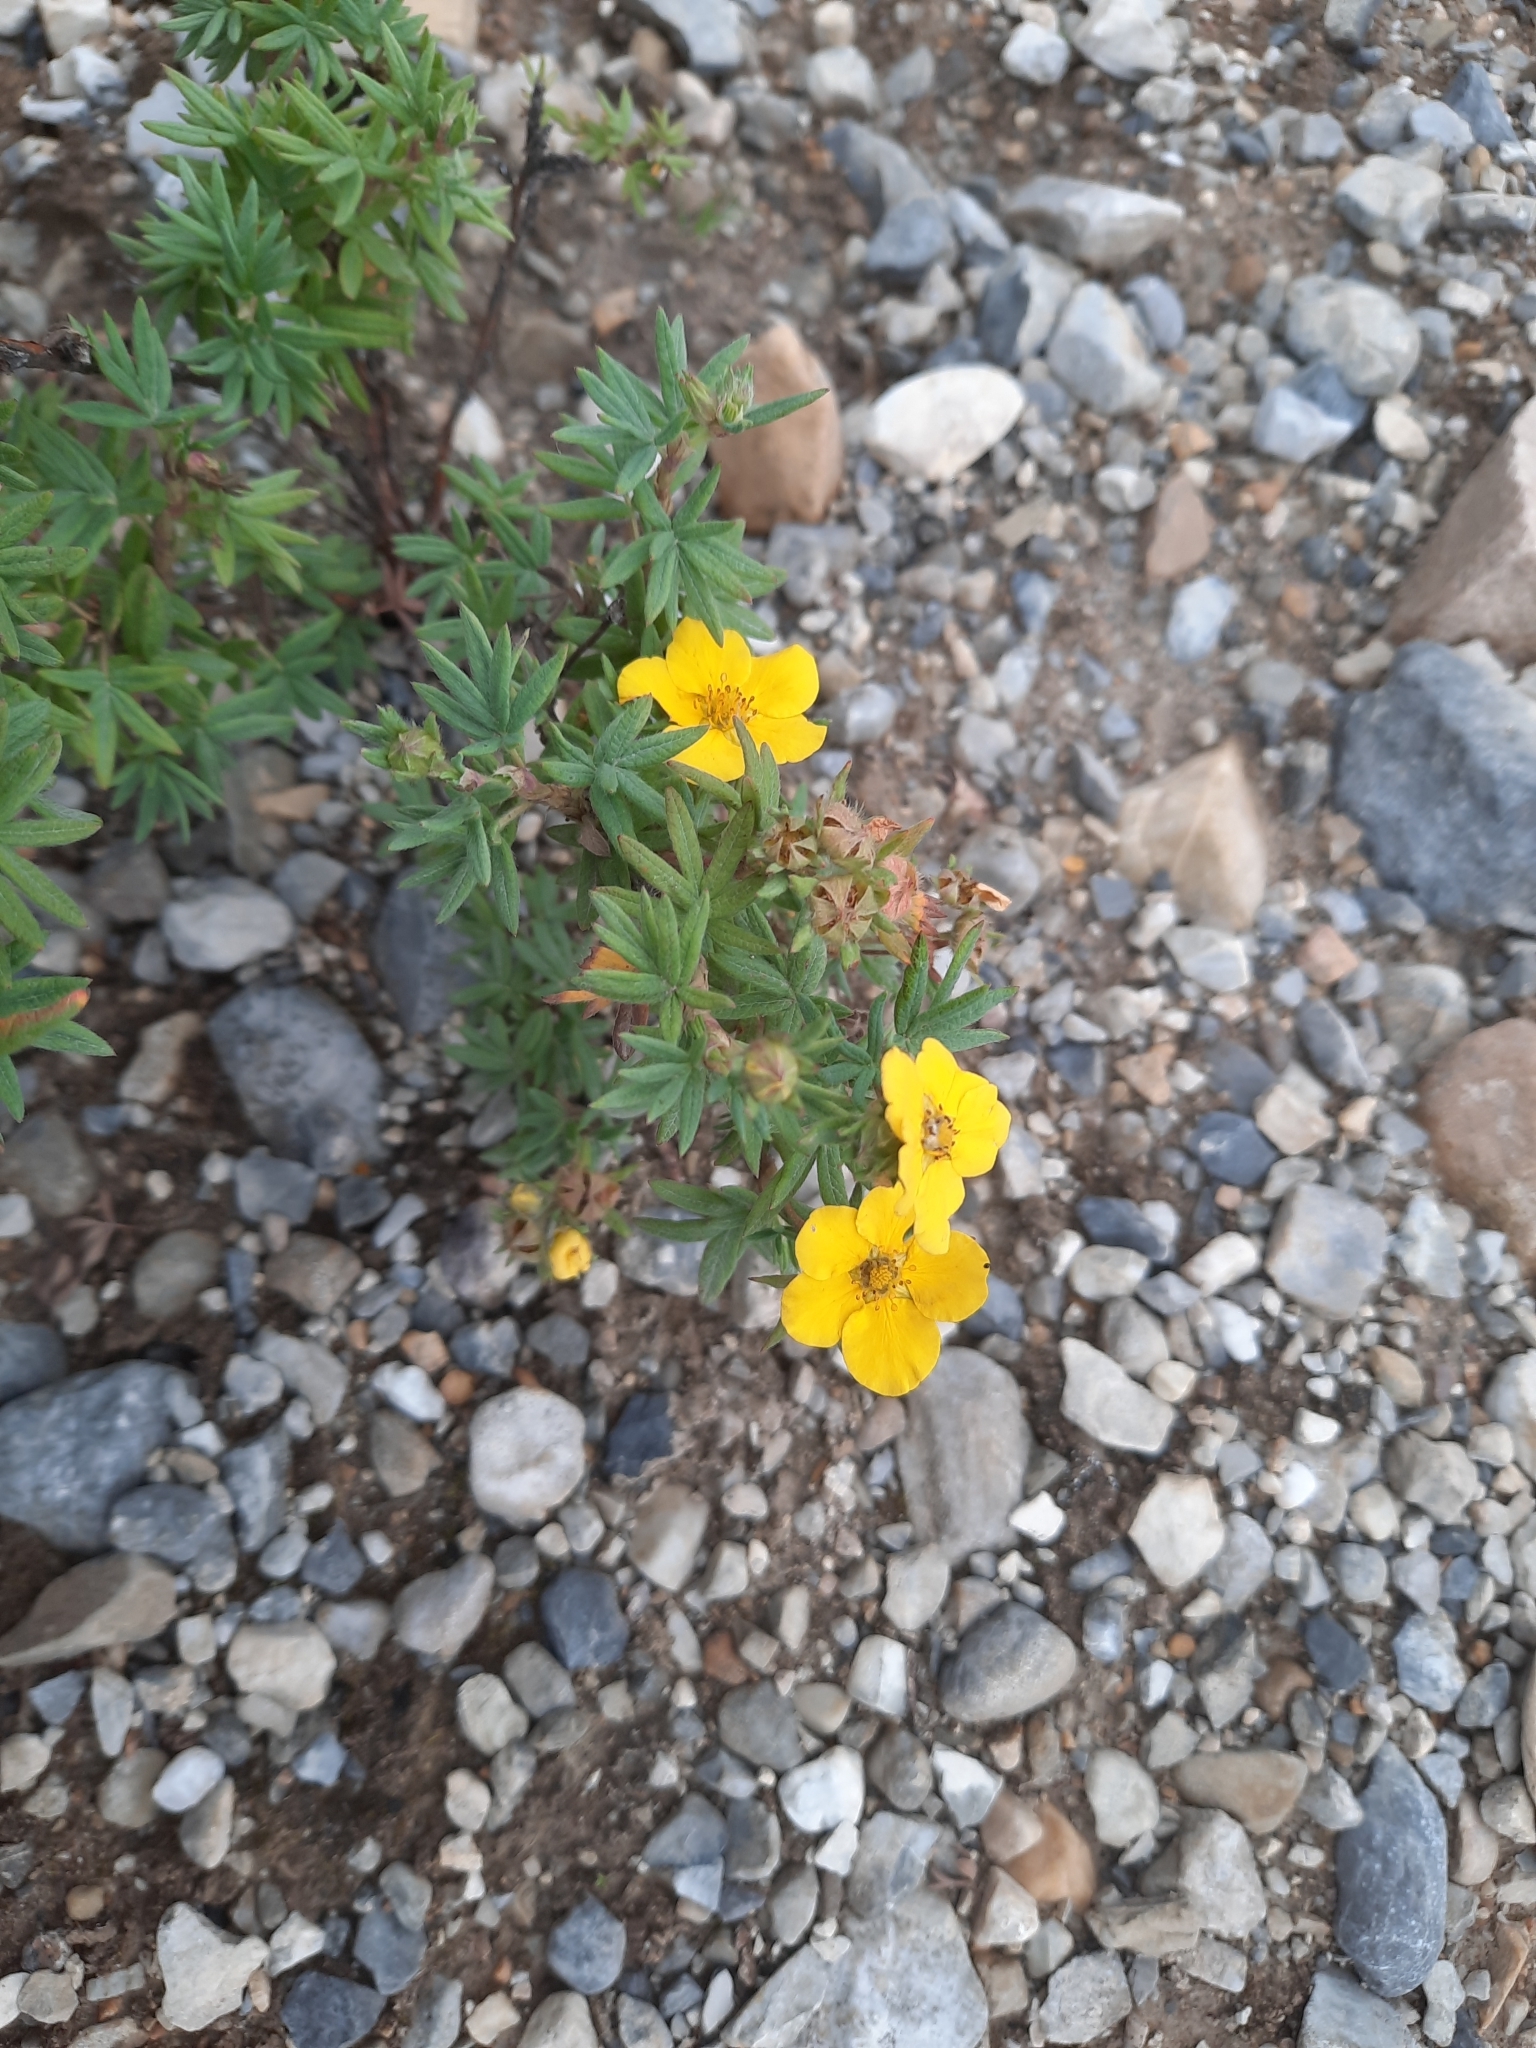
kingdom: Plantae
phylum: Tracheophyta
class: Magnoliopsida
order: Rosales
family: Rosaceae
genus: Dasiphora
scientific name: Dasiphora fruticosa
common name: Shrubby cinquefoil
